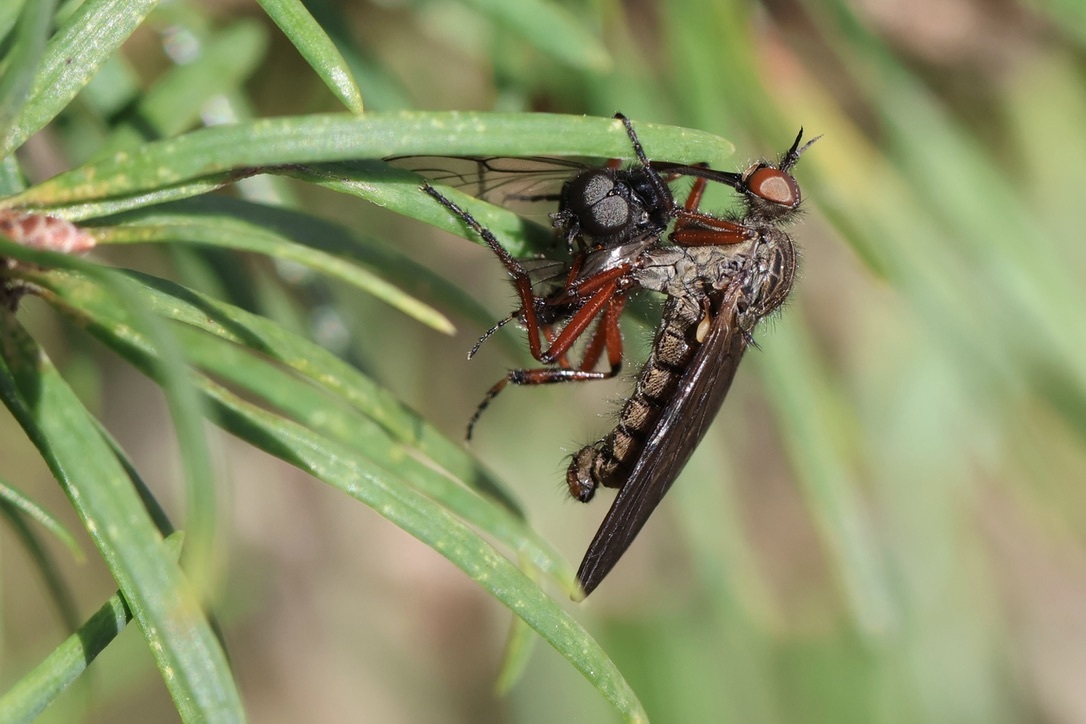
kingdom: Animalia
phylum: Arthropoda
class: Insecta
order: Diptera
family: Bibionidae
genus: Bibio
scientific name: Bibio xanthopus
